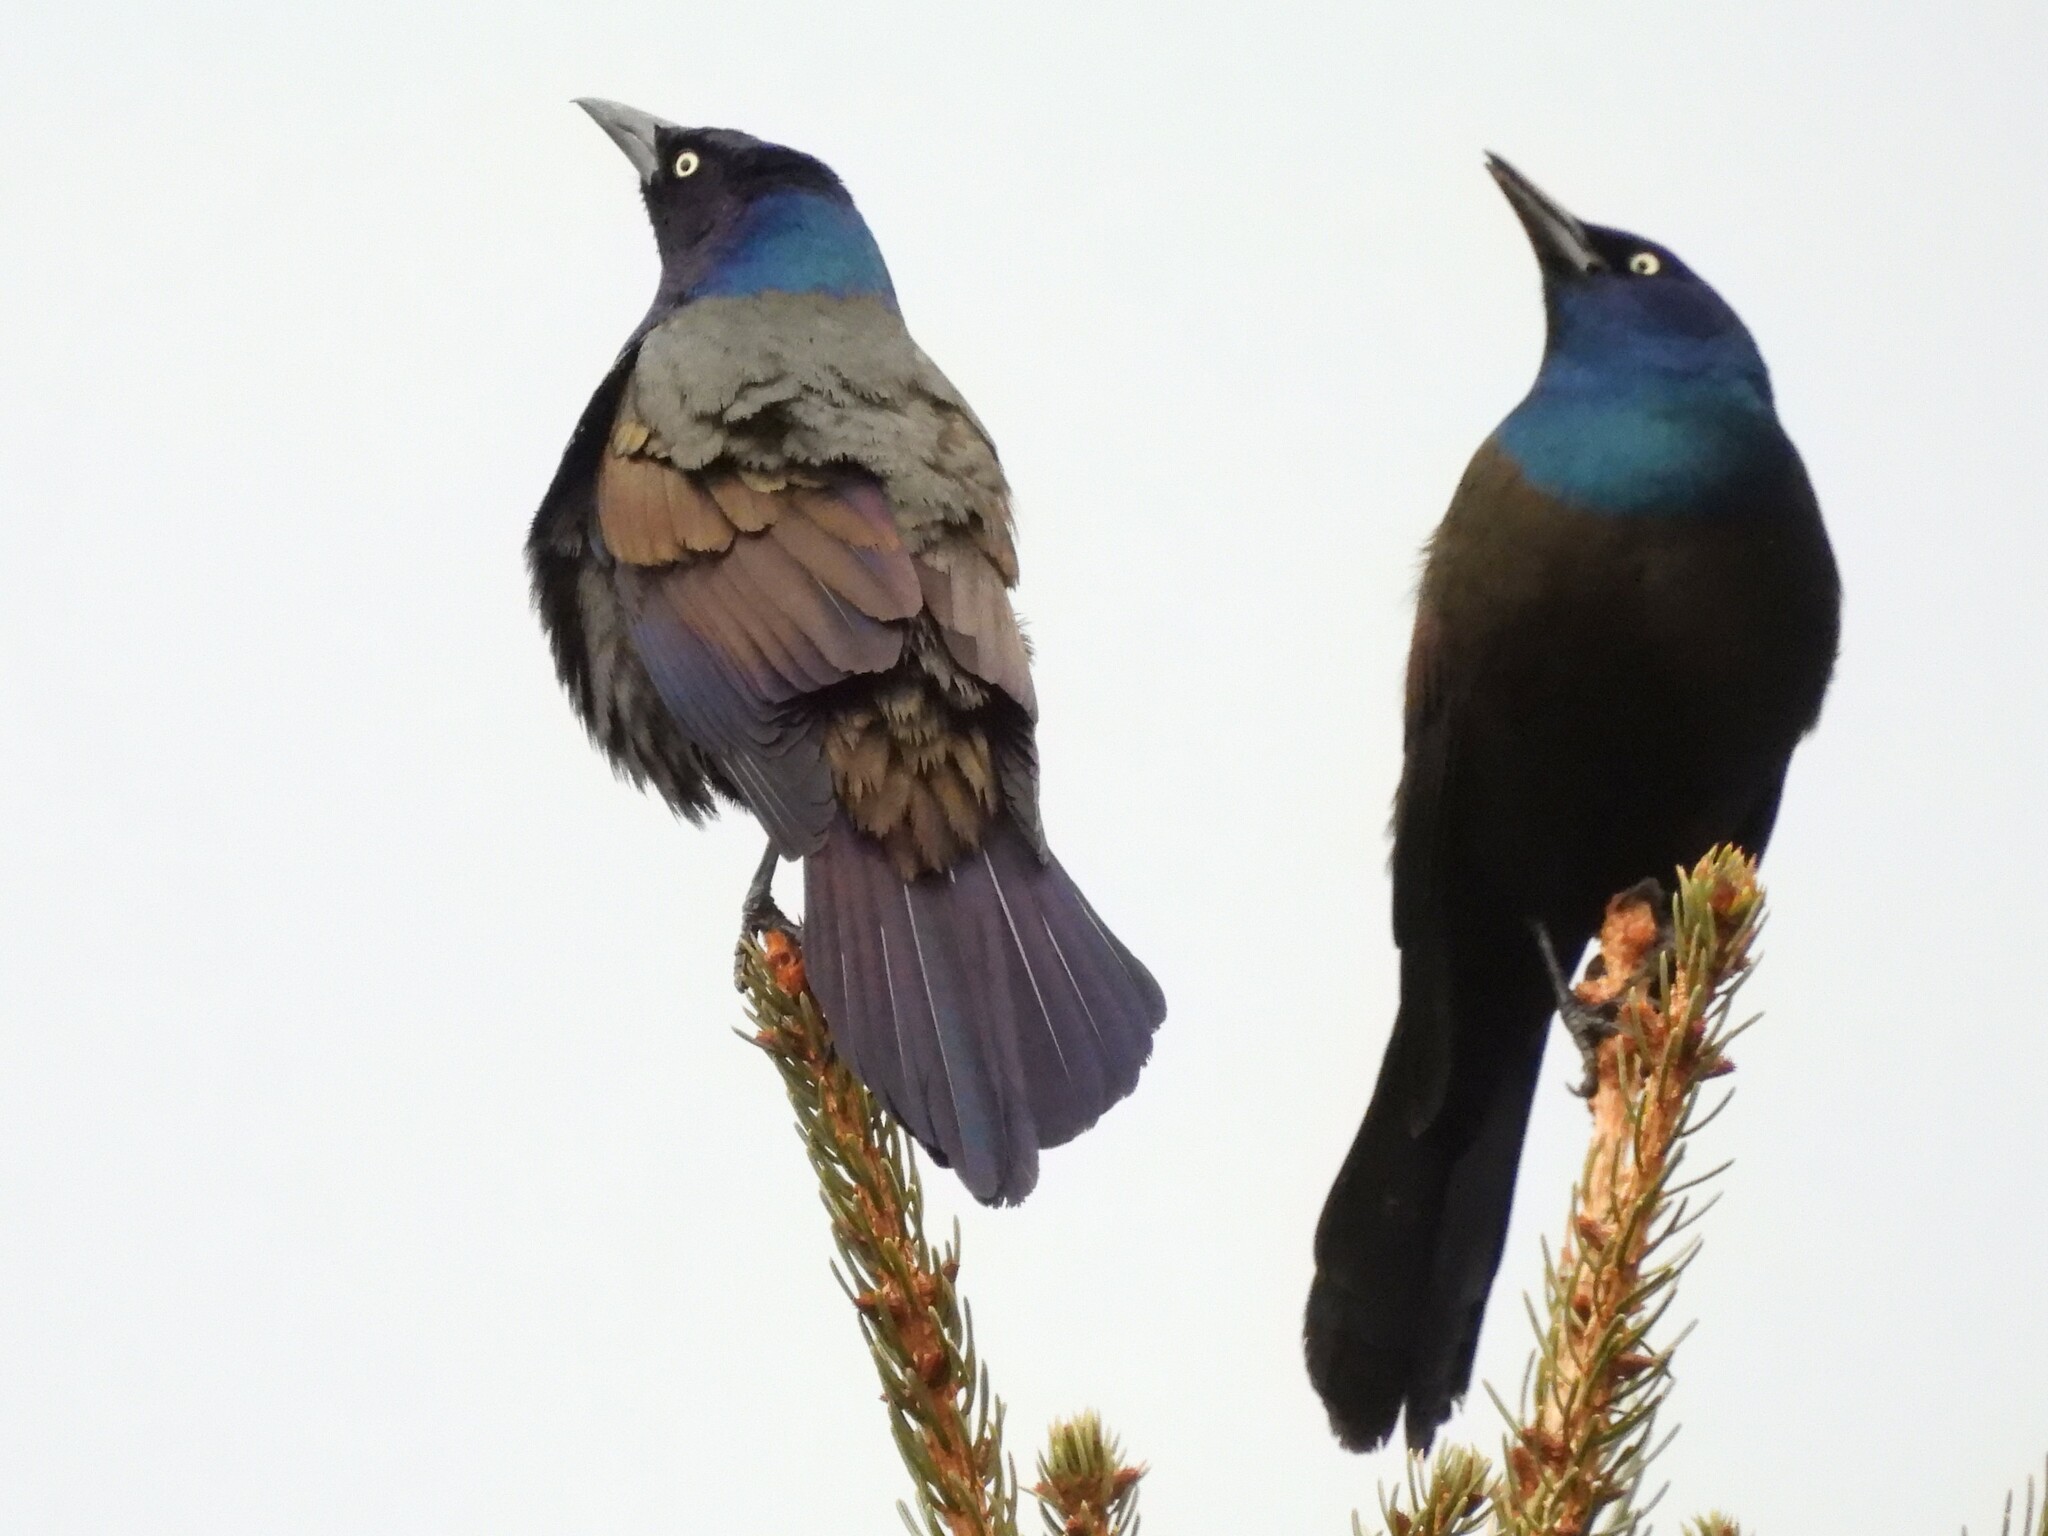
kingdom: Animalia
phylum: Chordata
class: Aves
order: Passeriformes
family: Icteridae
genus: Quiscalus
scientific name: Quiscalus quiscula
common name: Common grackle
